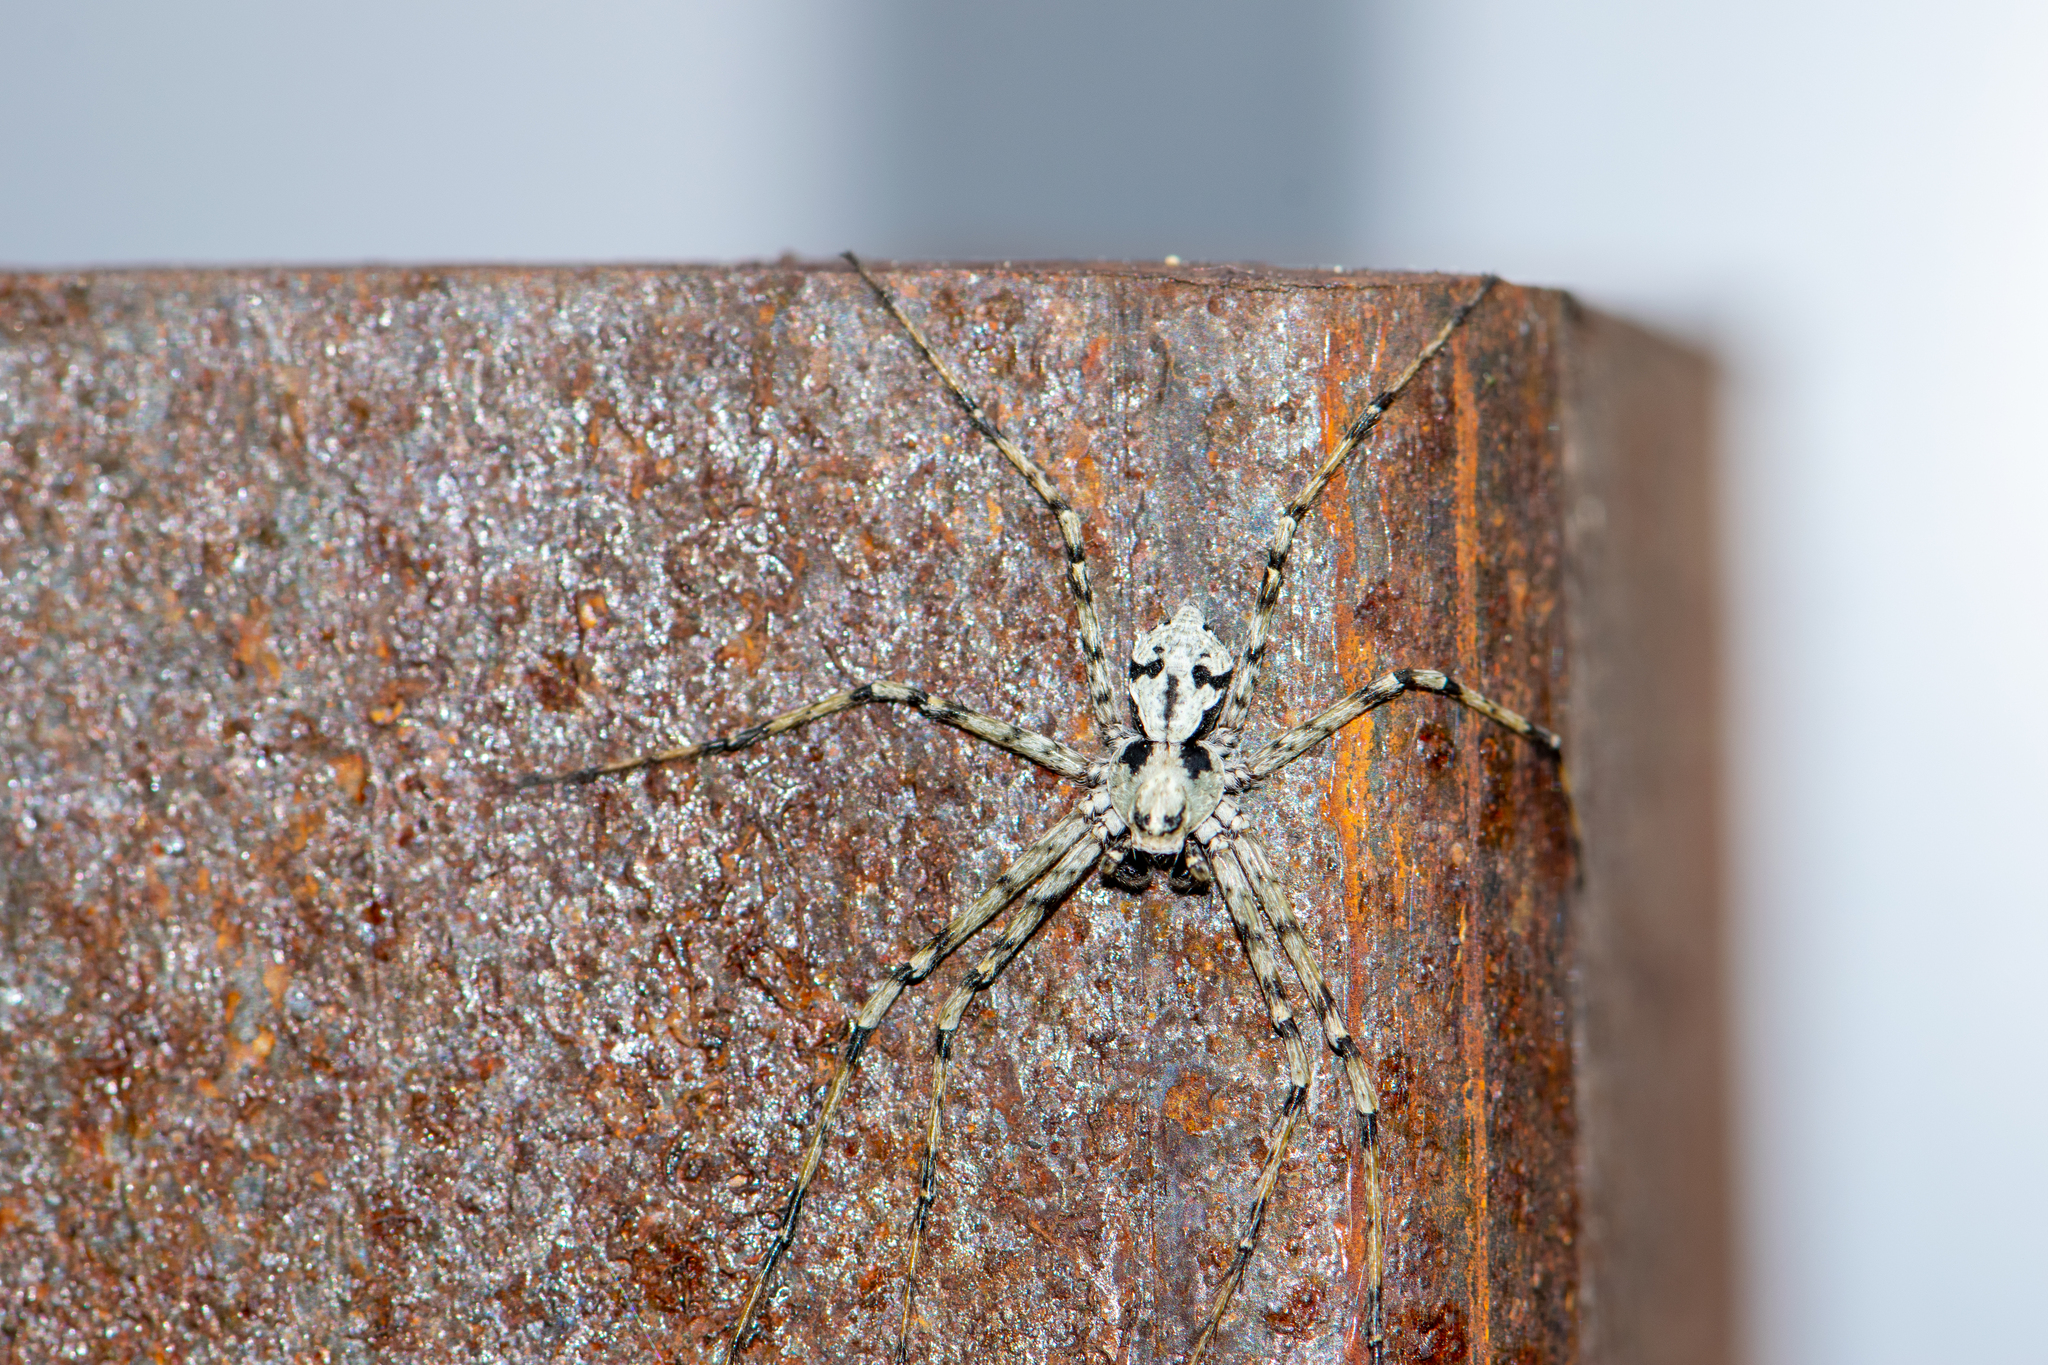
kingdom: Animalia
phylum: Arthropoda
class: Arachnida
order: Araneae
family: Philodromidae
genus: Philodromus
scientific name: Philodromus margaritatus
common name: Lichen running-spider
